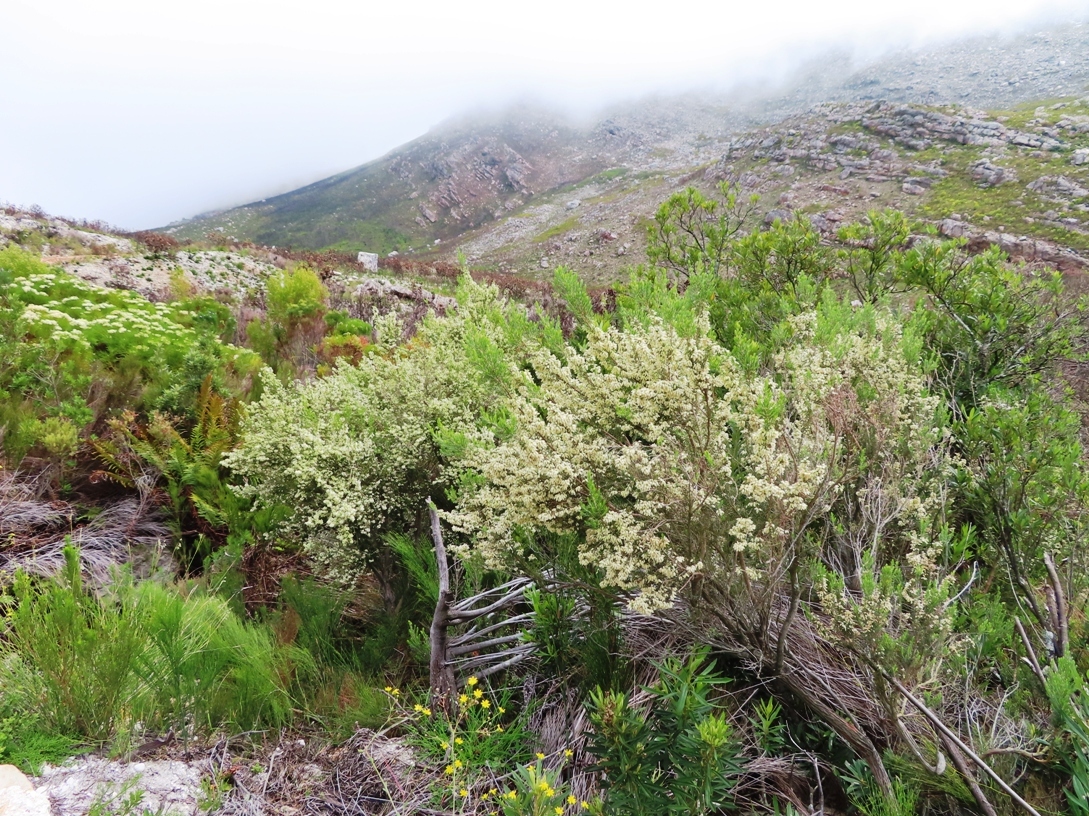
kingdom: Plantae
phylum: Tracheophyta
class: Magnoliopsida
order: Ericales
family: Ericaceae
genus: Erica
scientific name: Erica caffra
